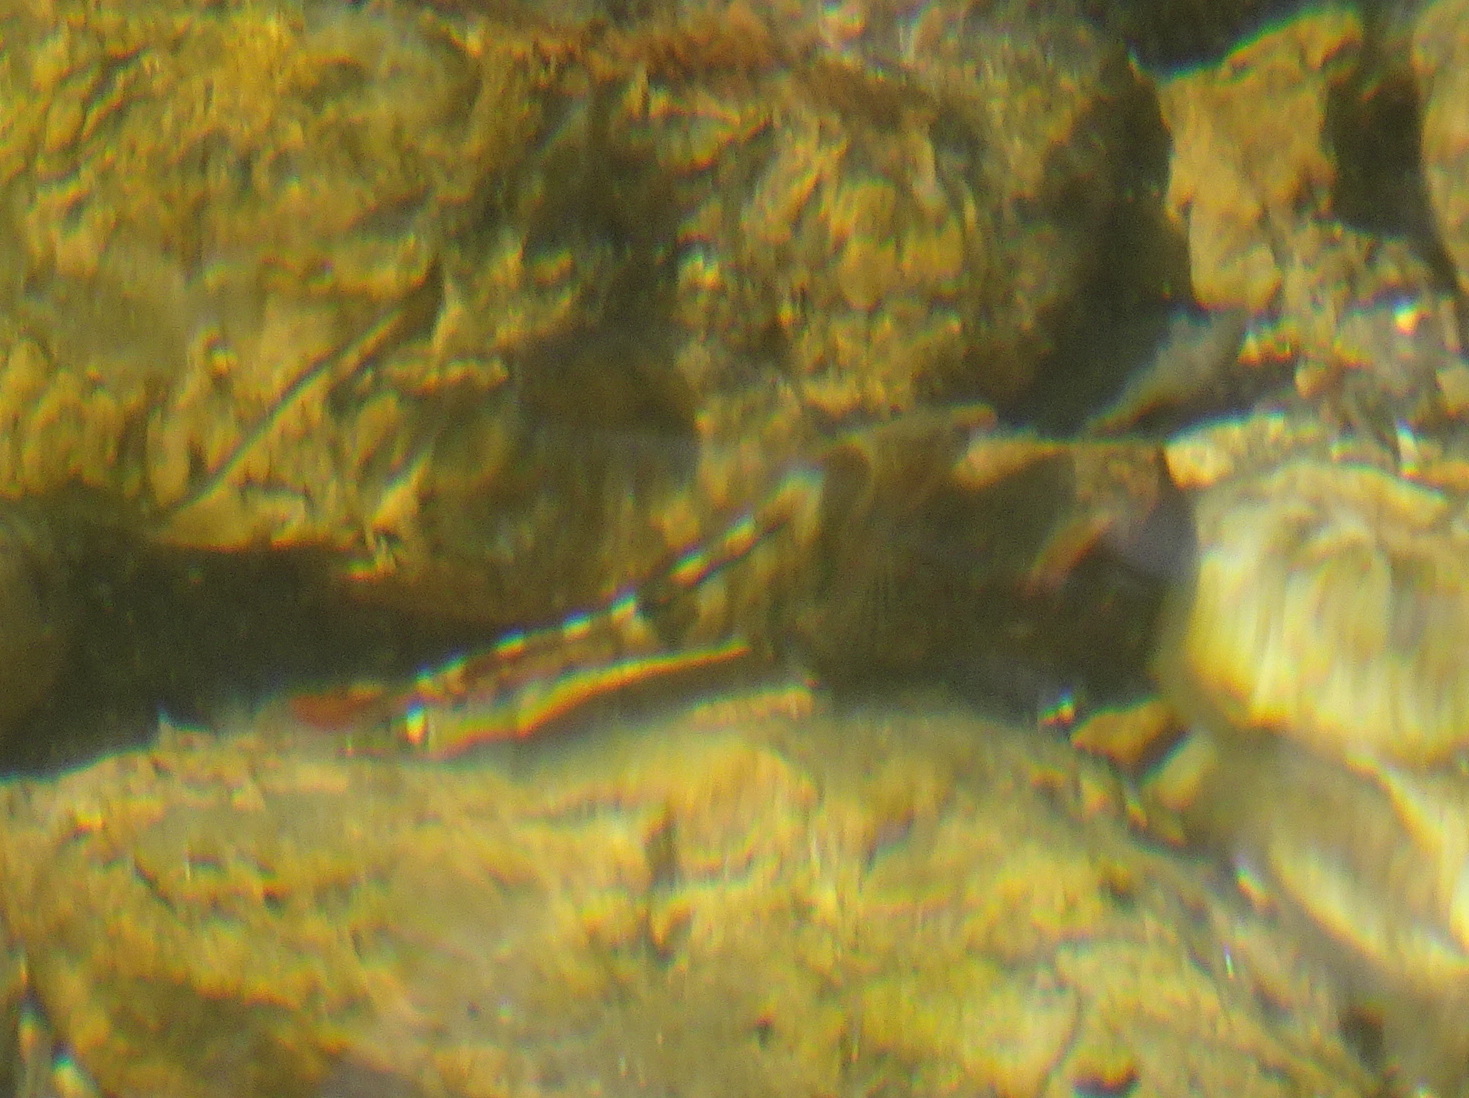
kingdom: Animalia
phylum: Chordata
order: Perciformes
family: Percidae
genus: Etheostoma
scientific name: Etheostoma caeruleum
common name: Rainbow darter
